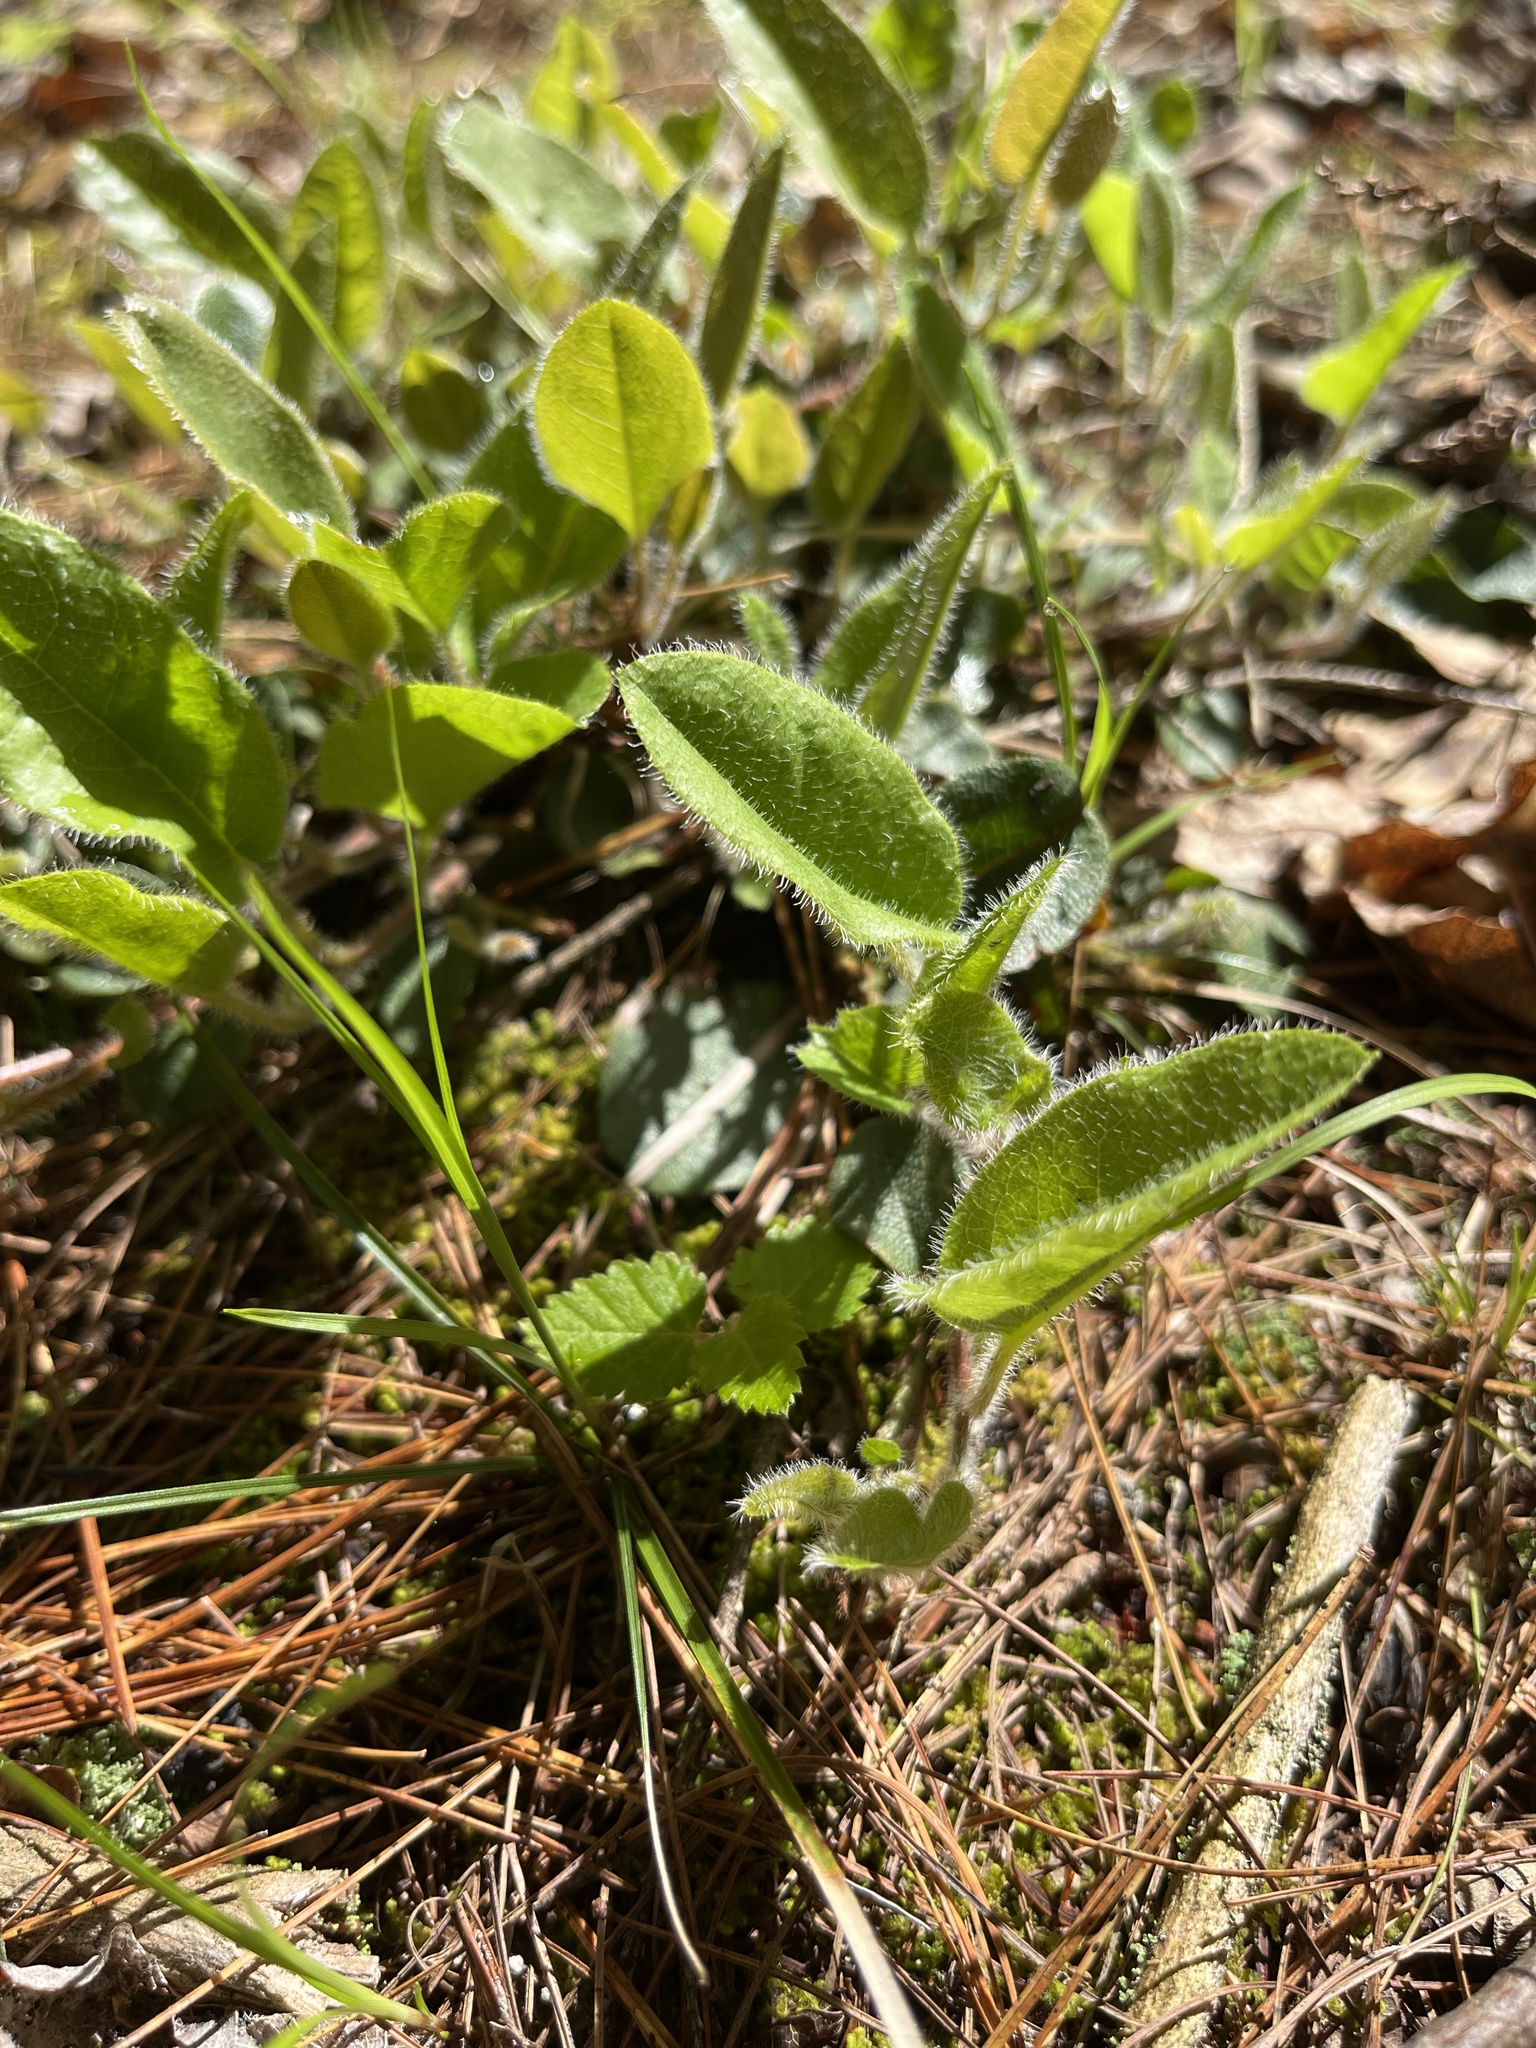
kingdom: Plantae
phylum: Tracheophyta
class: Magnoliopsida
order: Ericales
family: Ericaceae
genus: Epigaea
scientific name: Epigaea repens
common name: Gravelroot
